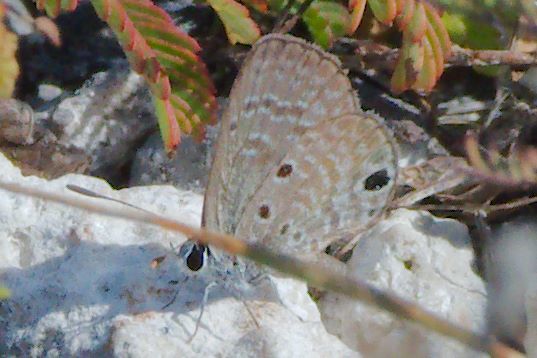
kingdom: Animalia
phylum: Arthropoda
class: Insecta
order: Lepidoptera
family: Lycaenidae
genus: Hemiargus
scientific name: Hemiargus ceraunus
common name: Ceraunus blue
